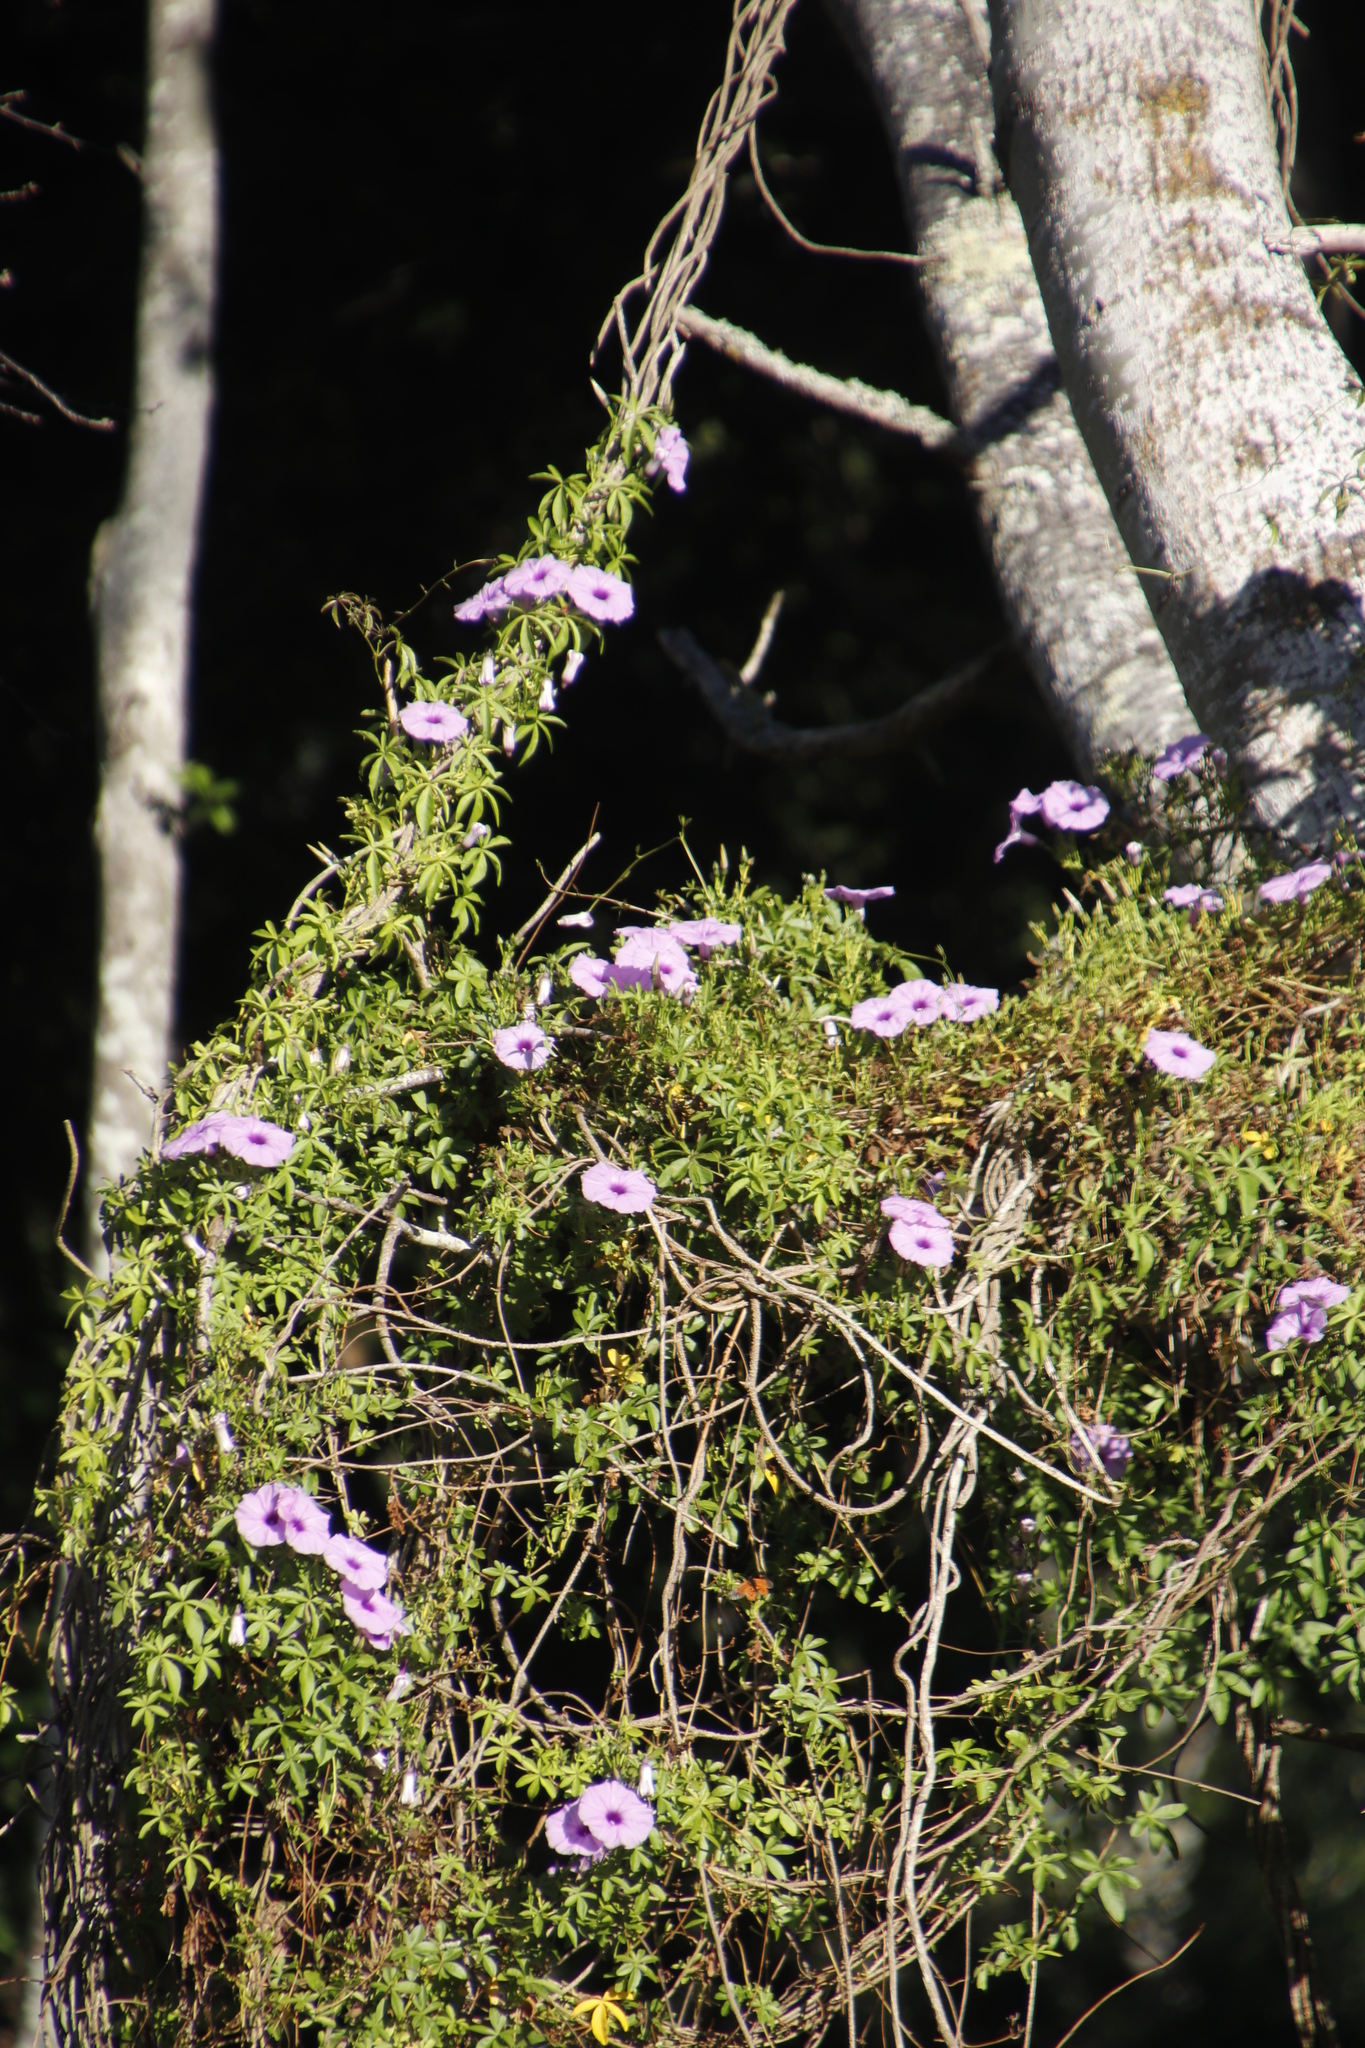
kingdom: Plantae
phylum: Tracheophyta
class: Magnoliopsida
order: Solanales
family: Convolvulaceae
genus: Ipomoea
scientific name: Ipomoea cairica
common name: Mile a minute vine
